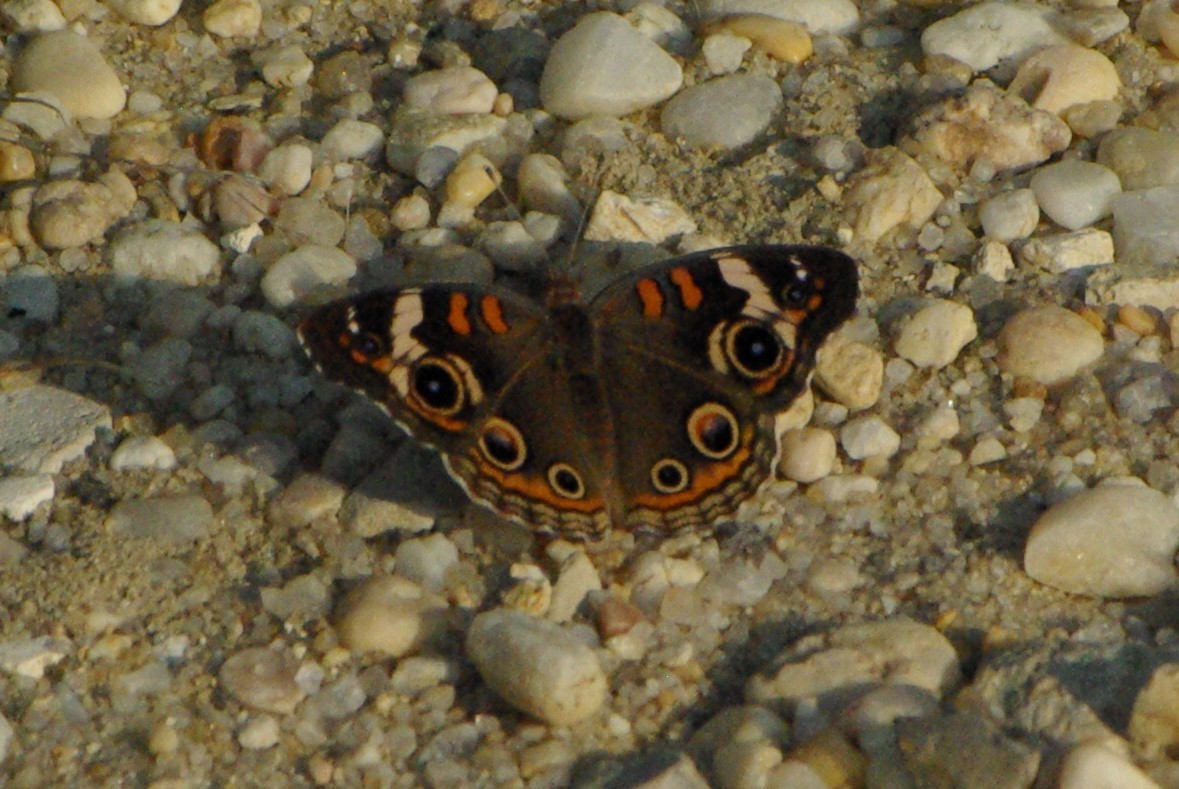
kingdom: Animalia
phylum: Arthropoda
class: Insecta
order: Lepidoptera
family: Nymphalidae
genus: Junonia
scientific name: Junonia coenia
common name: Common buckeye
